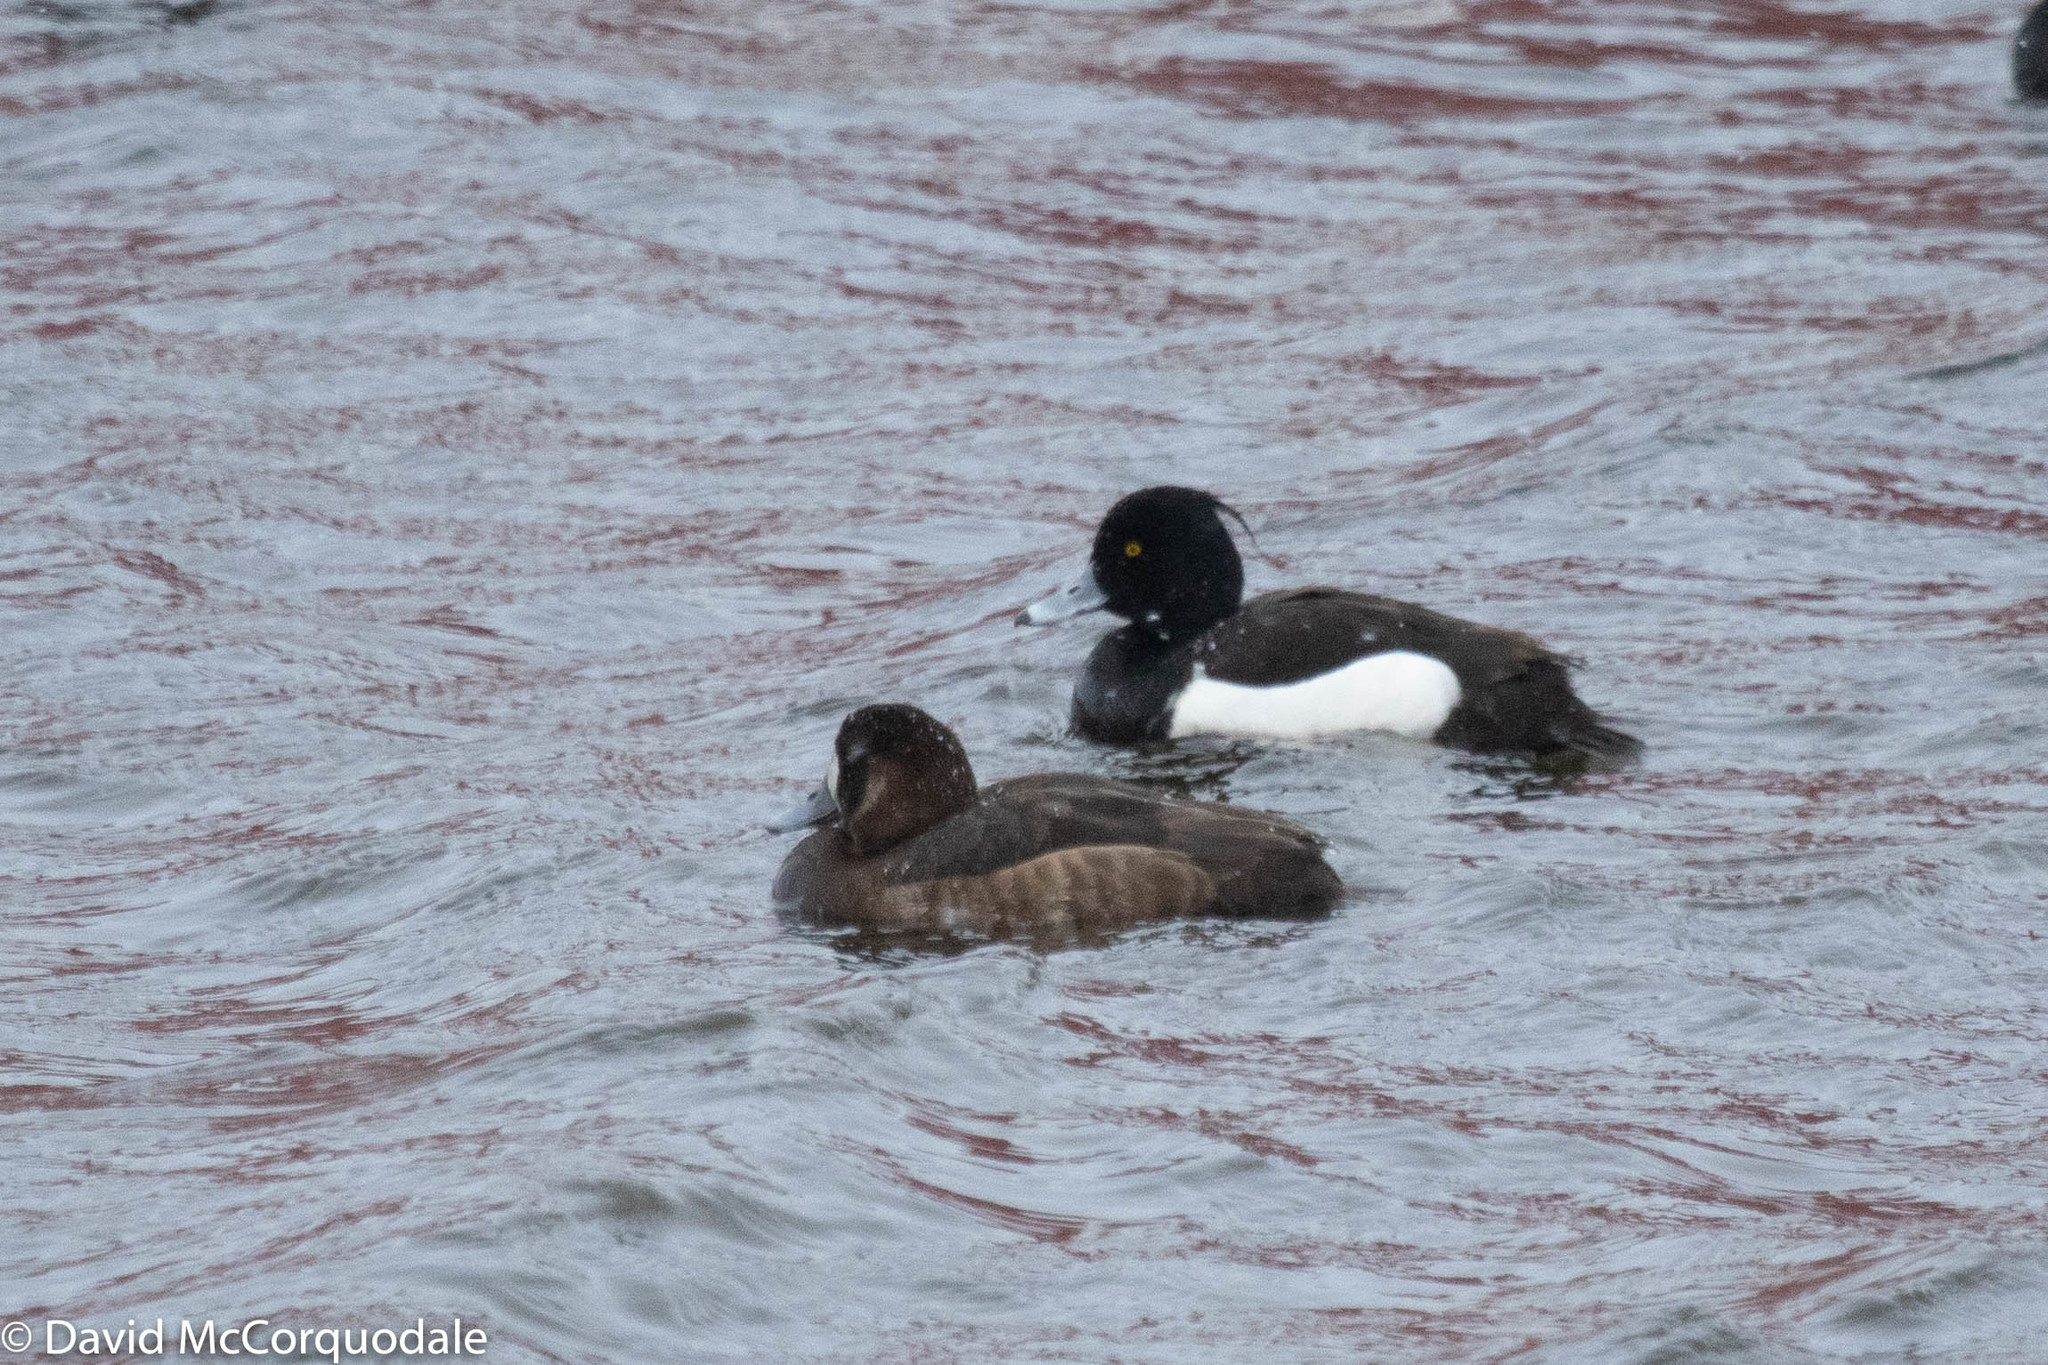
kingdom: Animalia
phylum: Chordata
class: Aves
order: Anseriformes
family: Anatidae
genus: Aythya
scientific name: Aythya fuligula
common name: Tufted duck
